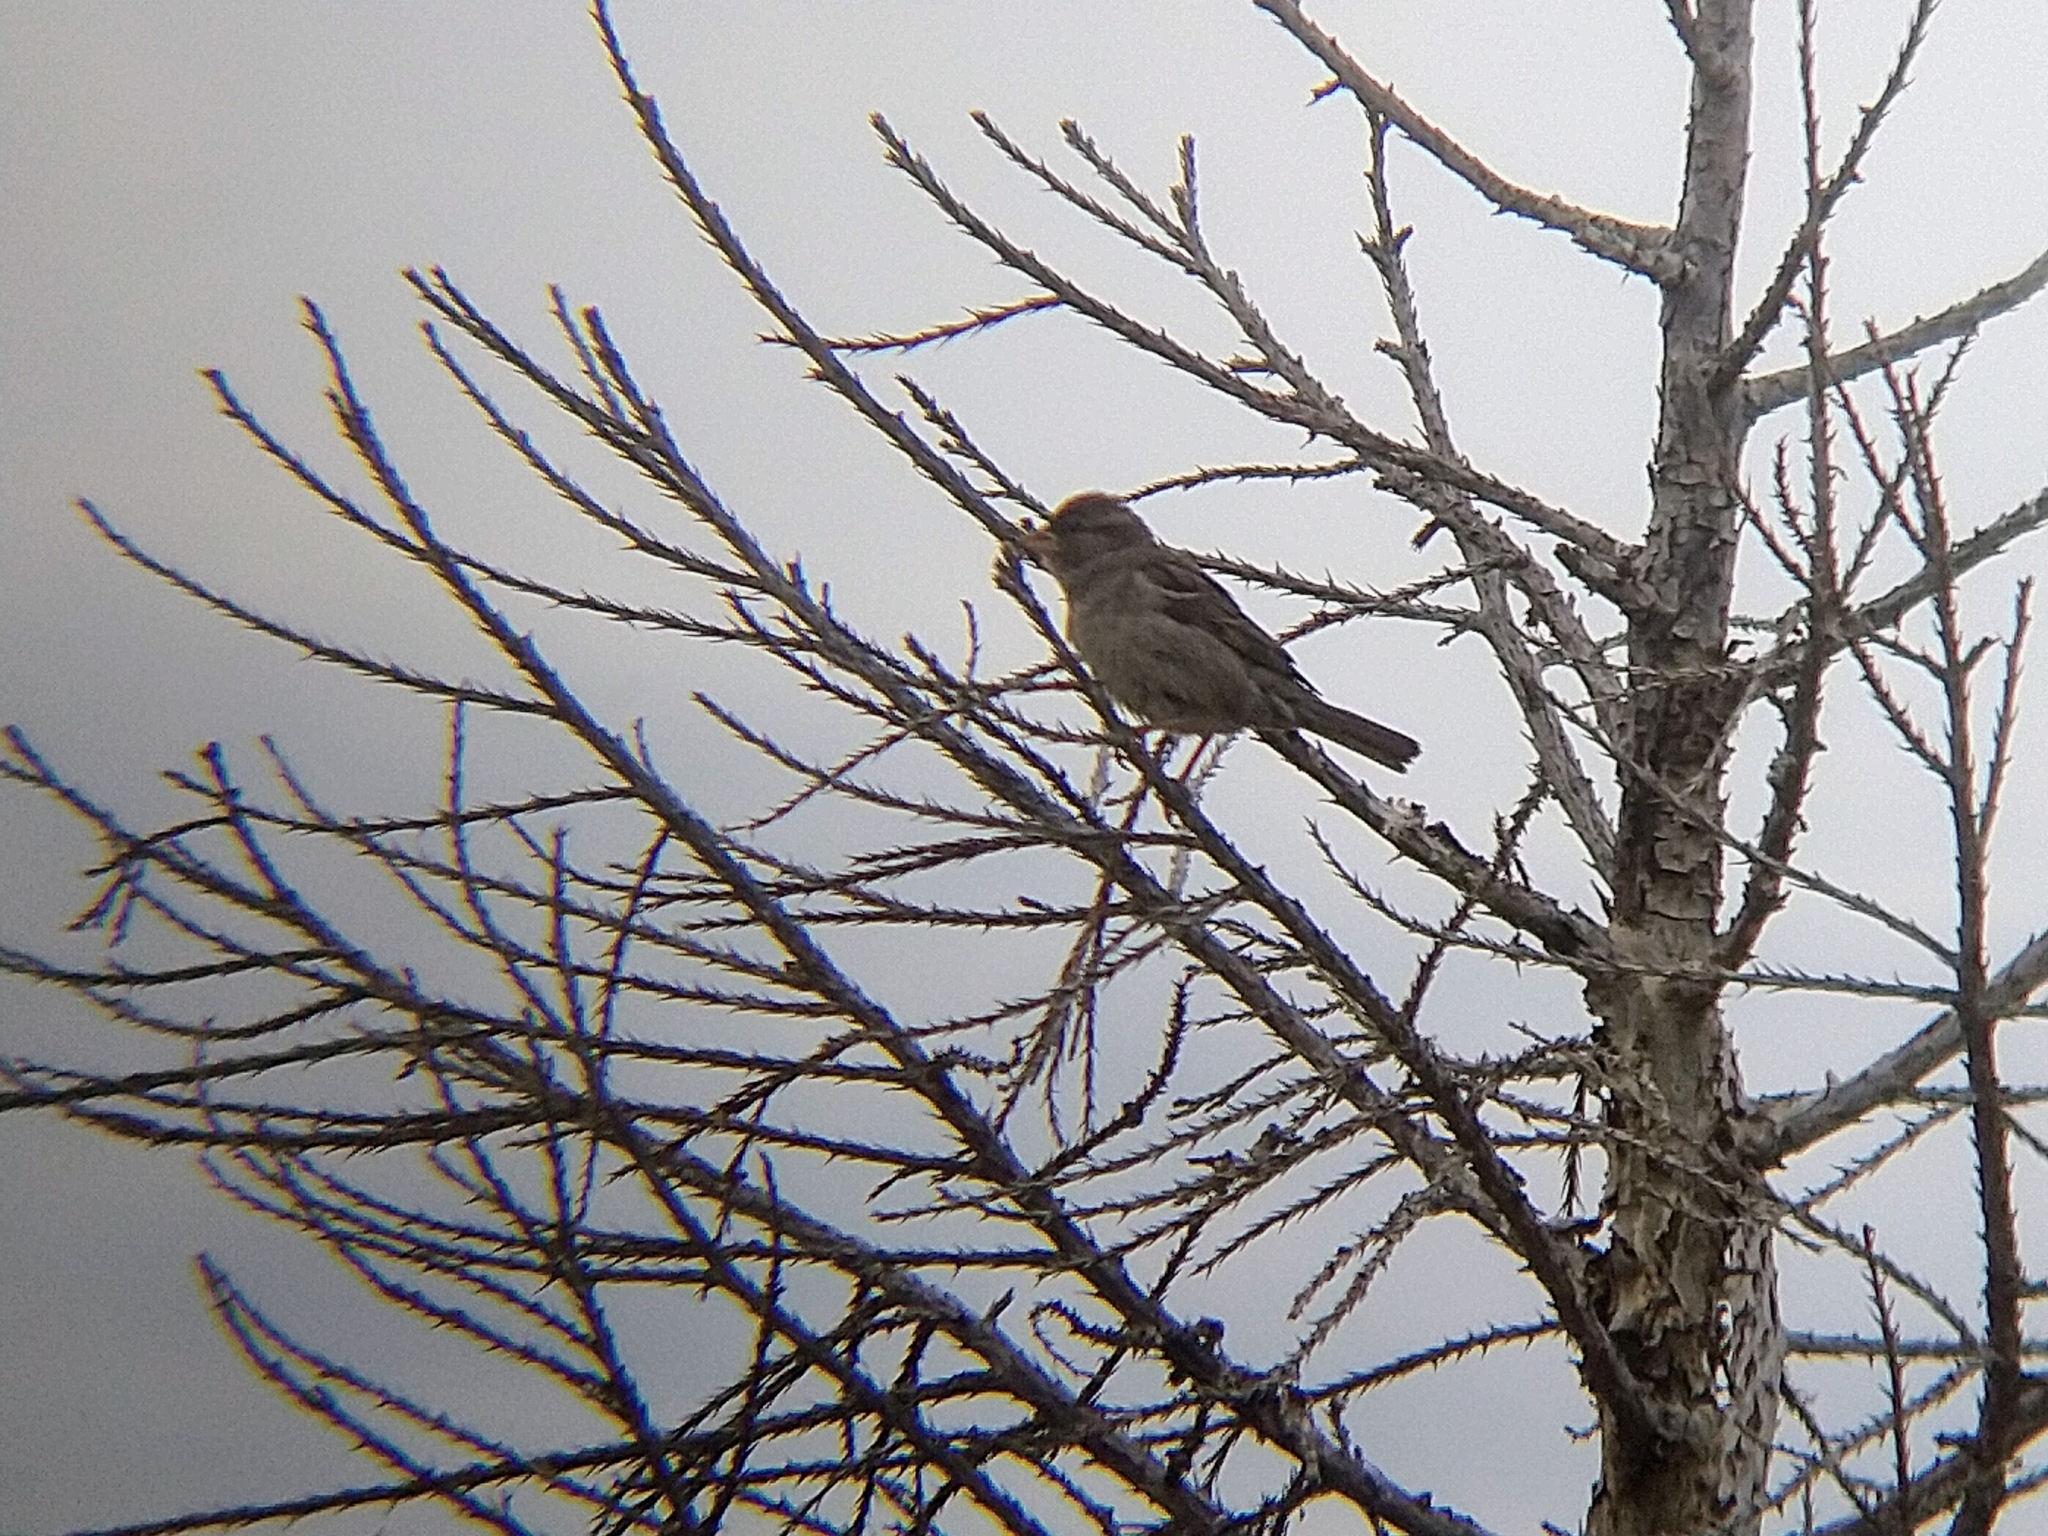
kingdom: Animalia
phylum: Chordata
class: Aves
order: Passeriformes
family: Passeridae
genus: Passer
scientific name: Passer domesticus
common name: House sparrow
